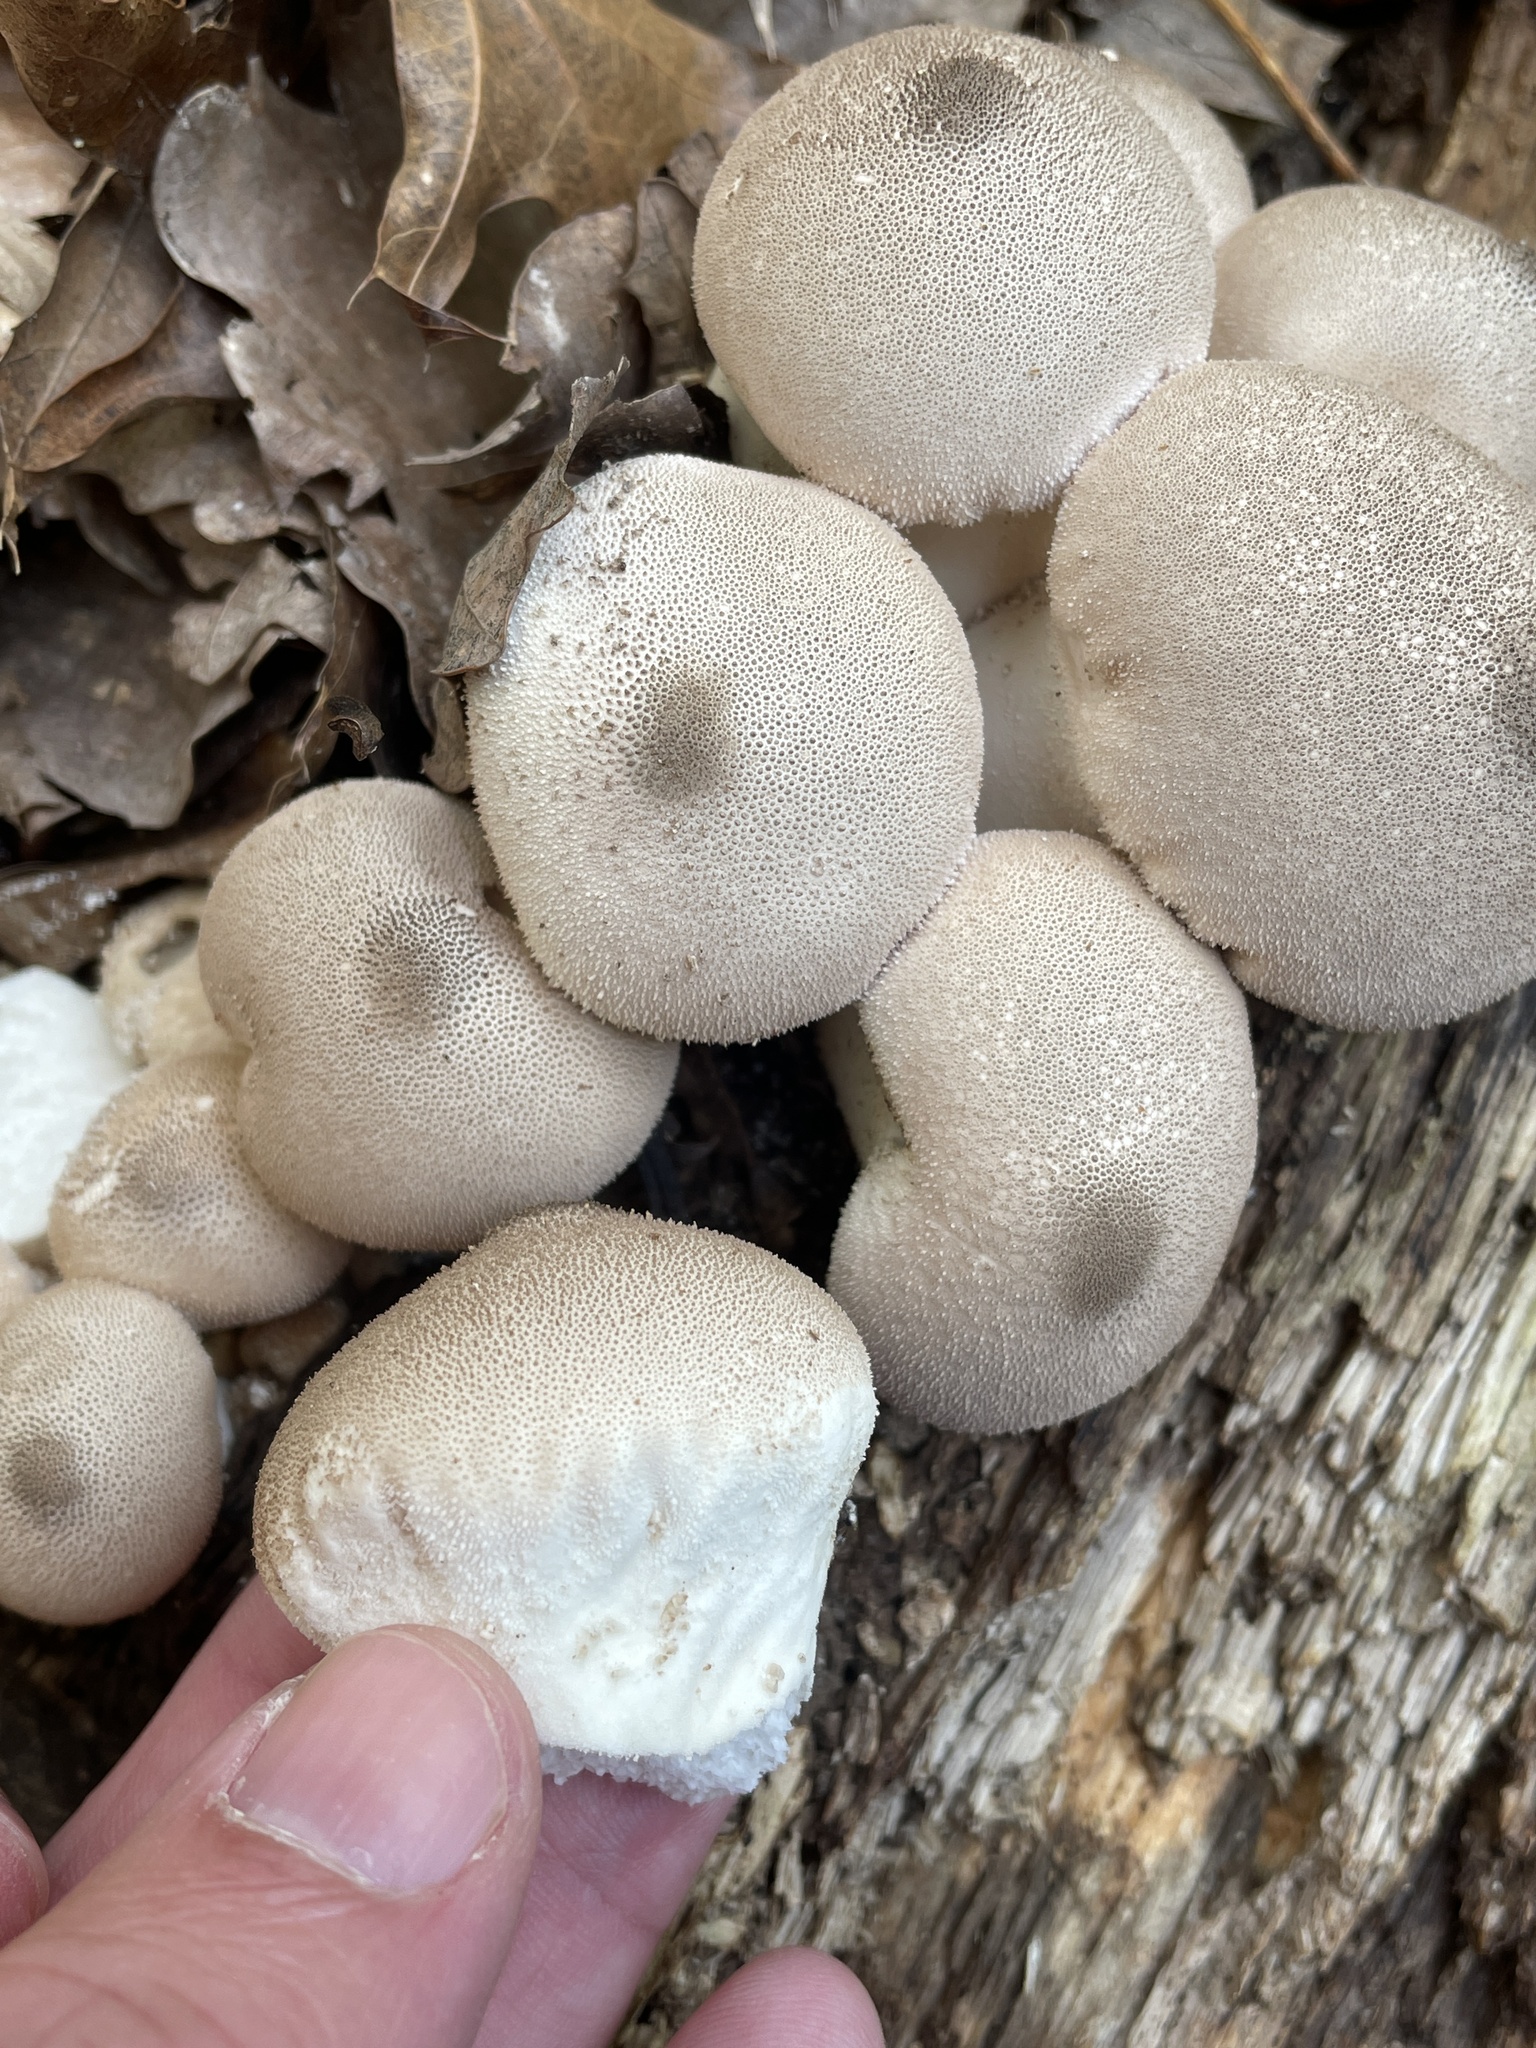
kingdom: Fungi
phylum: Basidiomycota
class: Agaricomycetes
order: Agaricales
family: Lycoperdaceae
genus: Apioperdon
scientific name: Apioperdon pyriforme
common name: Pear-shaped puffball
